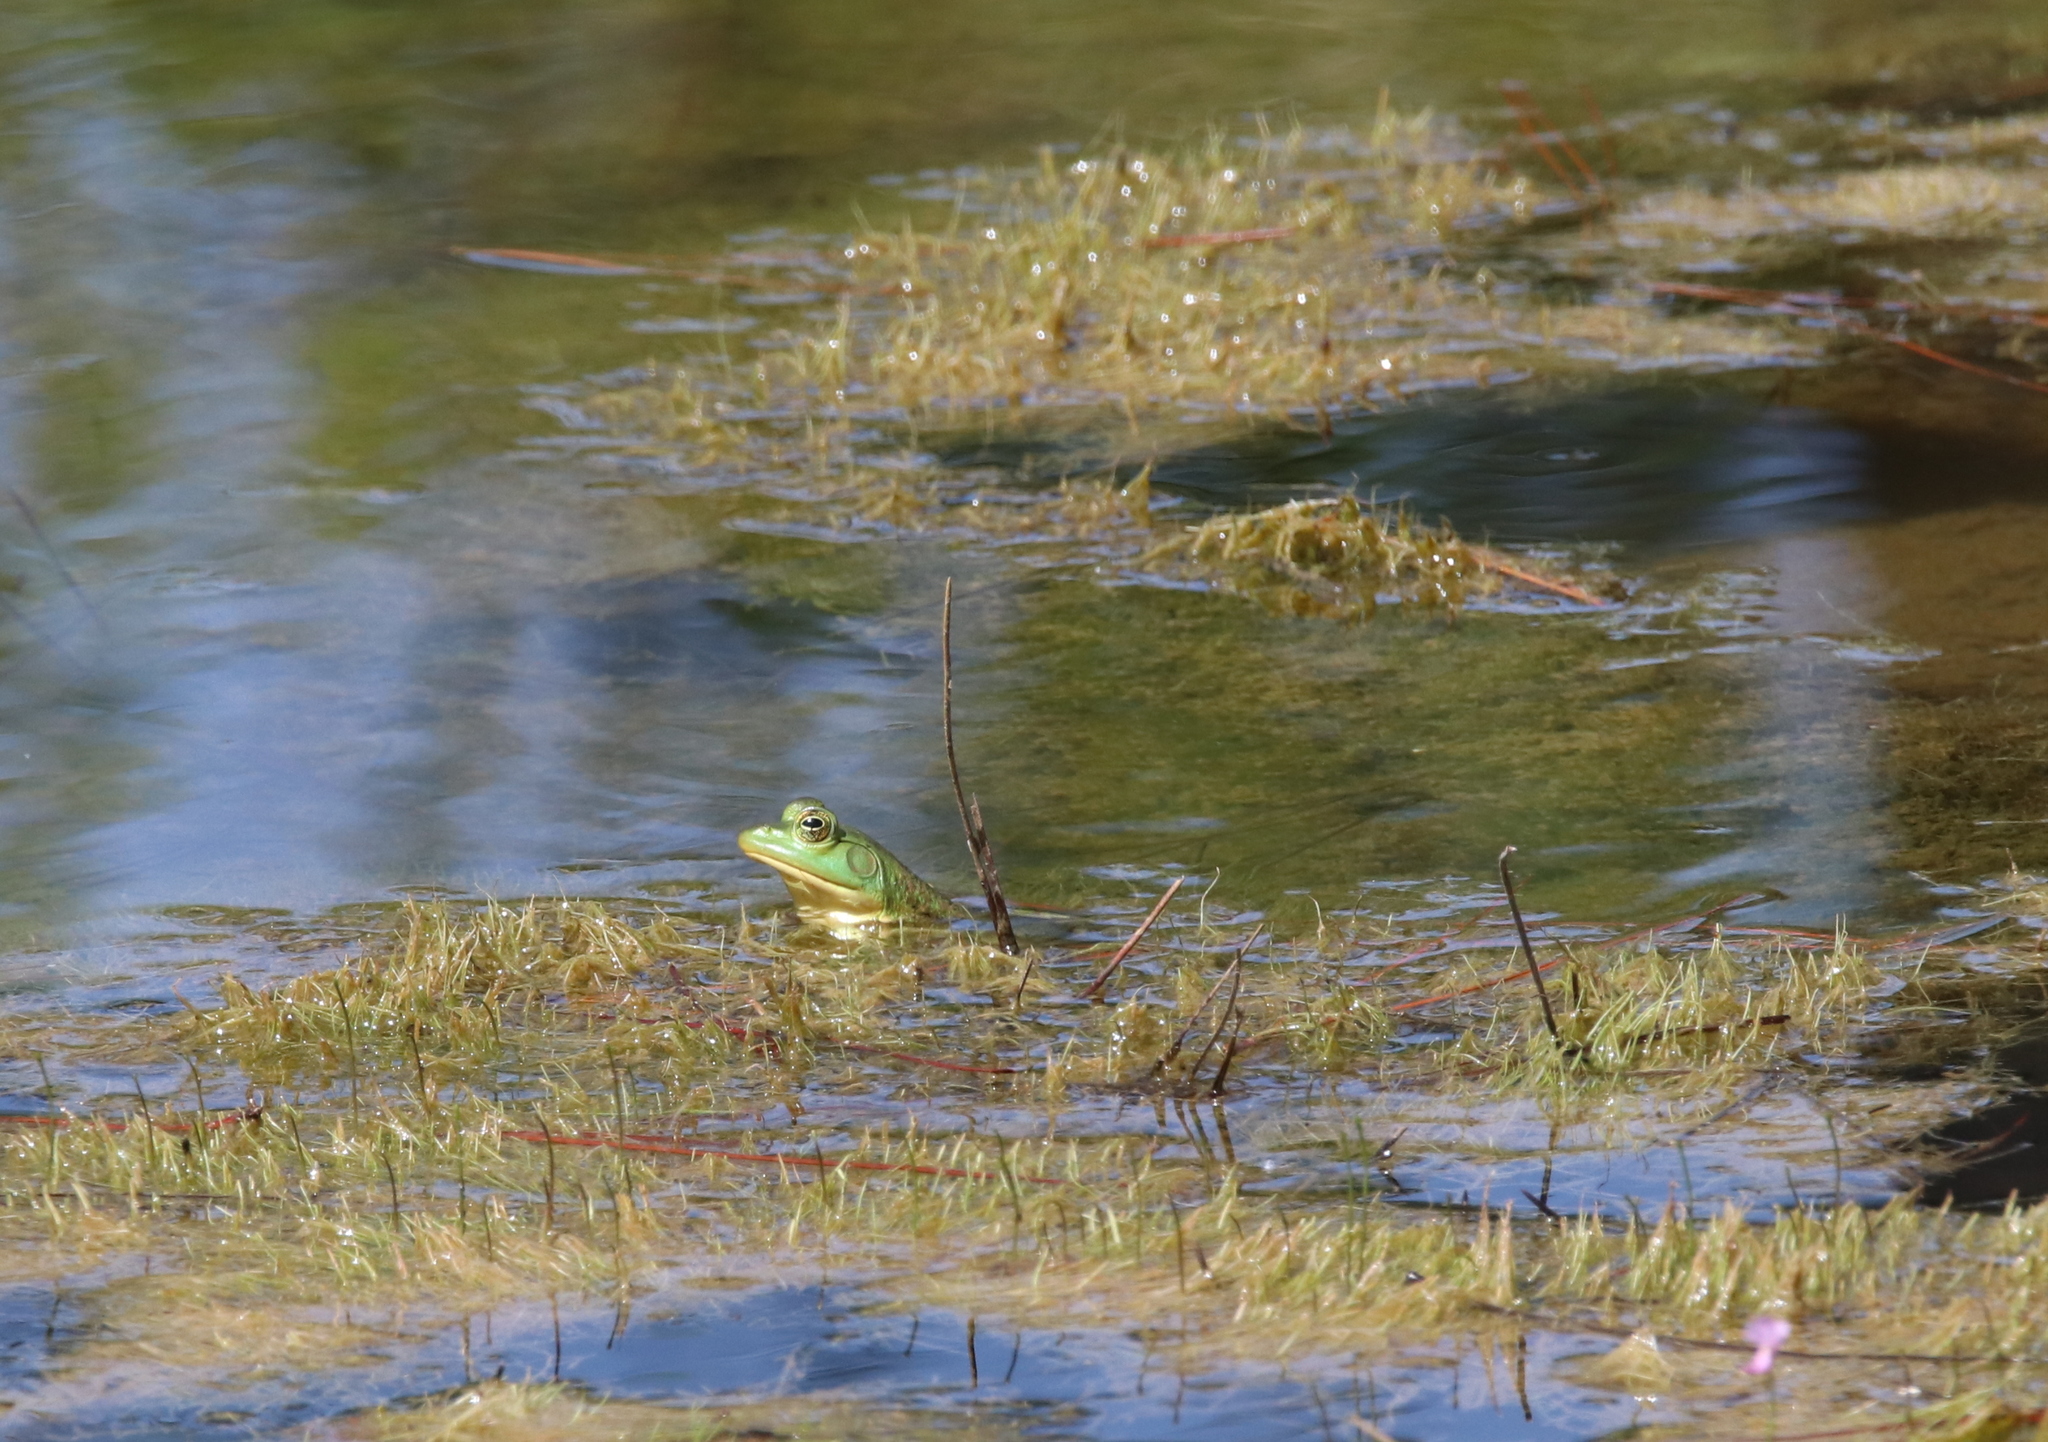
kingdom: Animalia
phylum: Chordata
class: Amphibia
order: Anura
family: Ranidae
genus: Lithobates
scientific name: Lithobates catesbeianus
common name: American bullfrog
